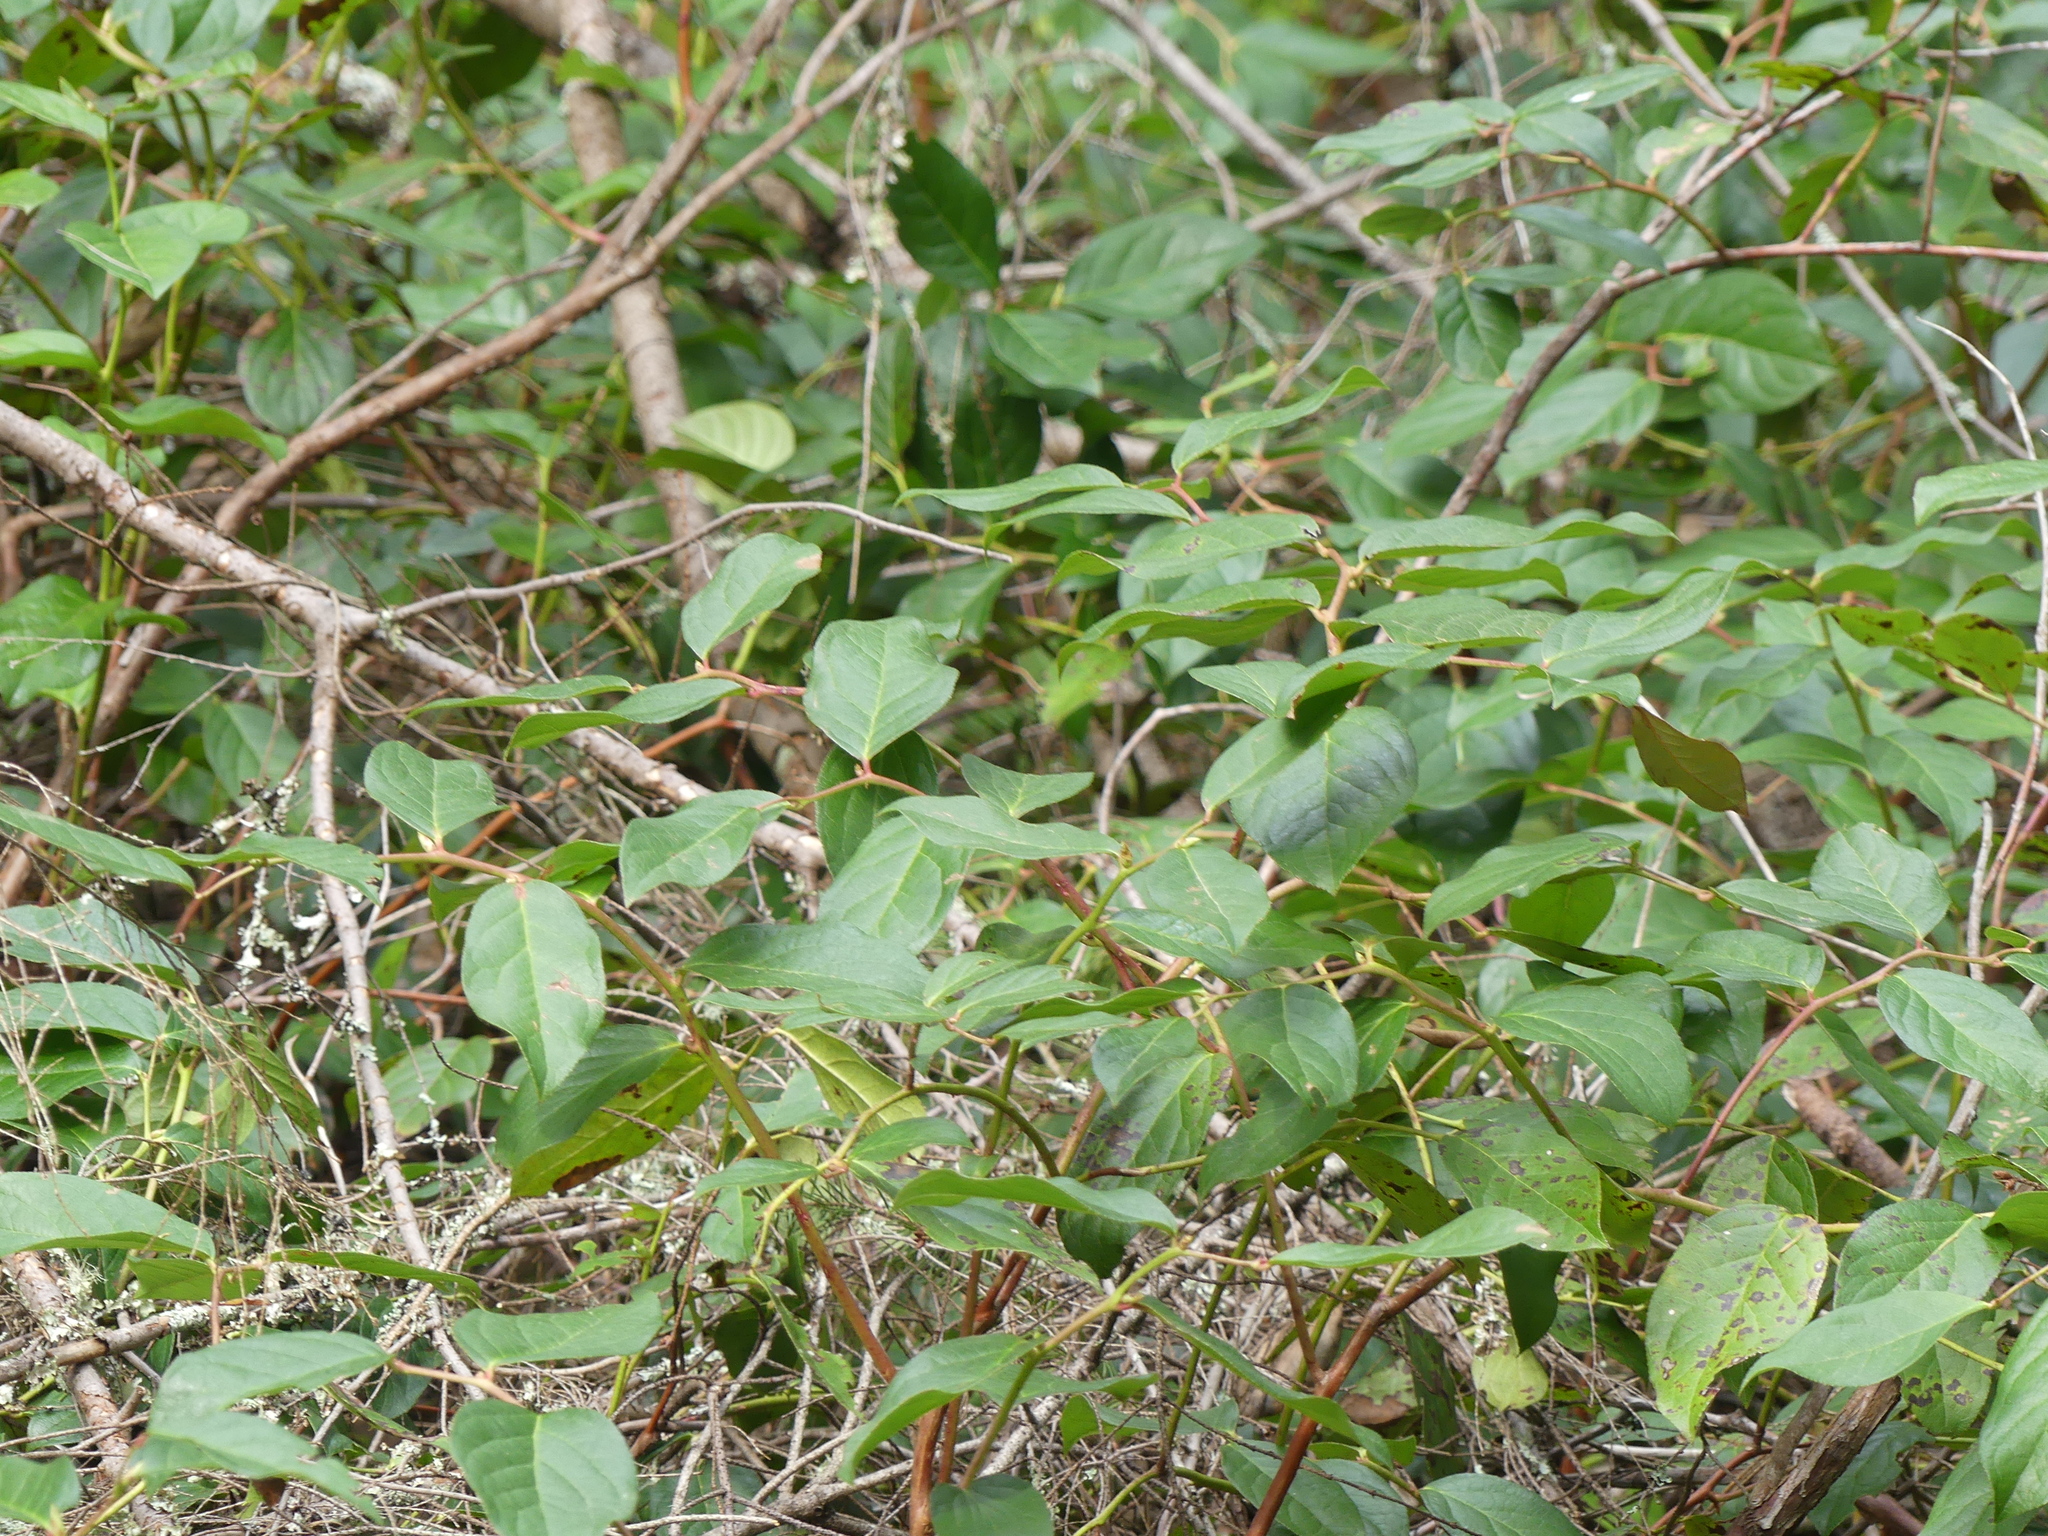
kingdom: Plantae
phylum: Tracheophyta
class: Magnoliopsida
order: Ericales
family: Ericaceae
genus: Gaultheria
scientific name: Gaultheria shallon
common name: Shallon
